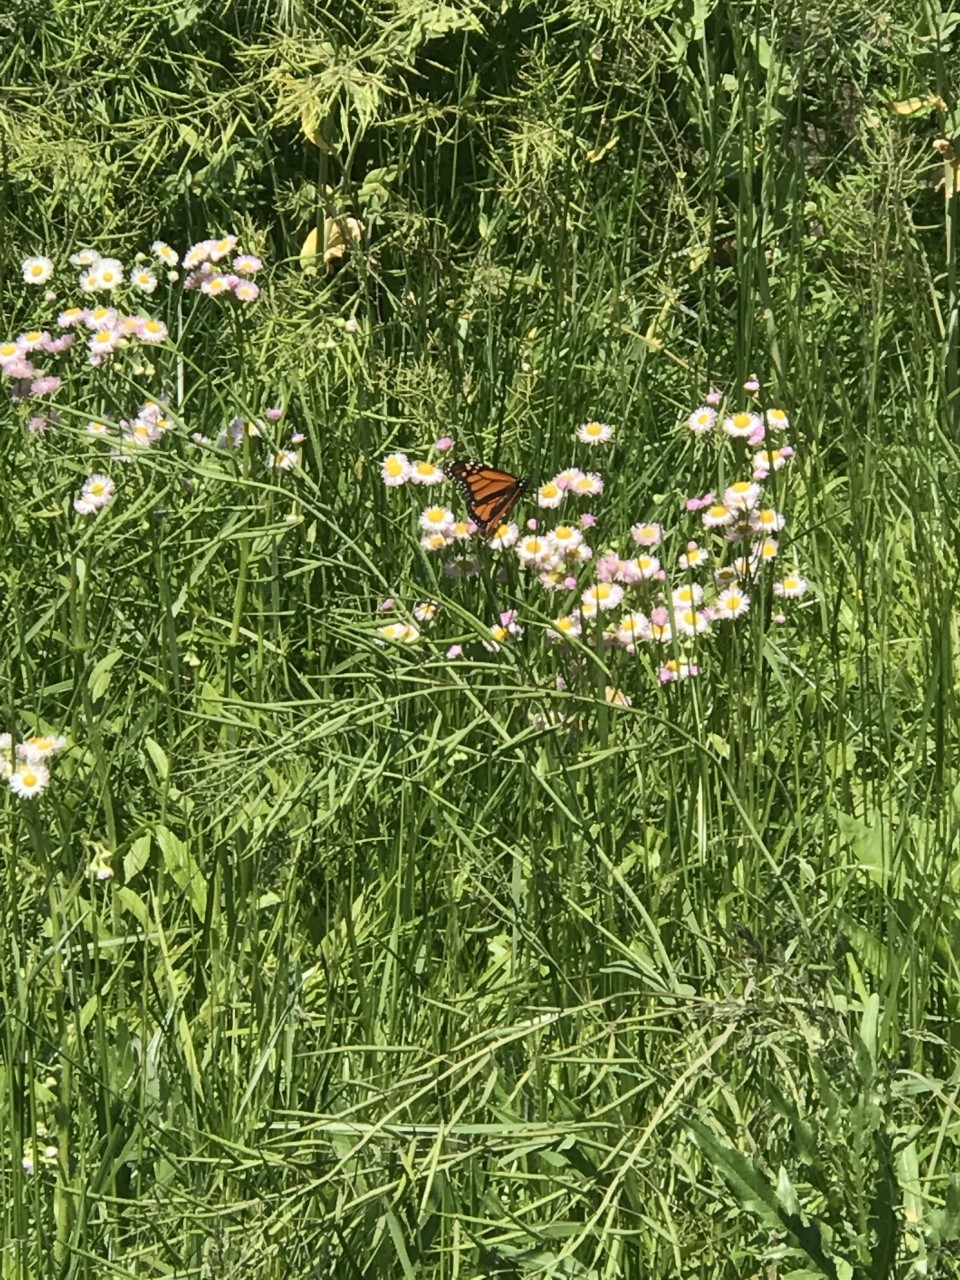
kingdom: Animalia
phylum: Arthropoda
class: Insecta
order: Lepidoptera
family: Nymphalidae
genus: Danaus
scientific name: Danaus plexippus
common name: Monarch
